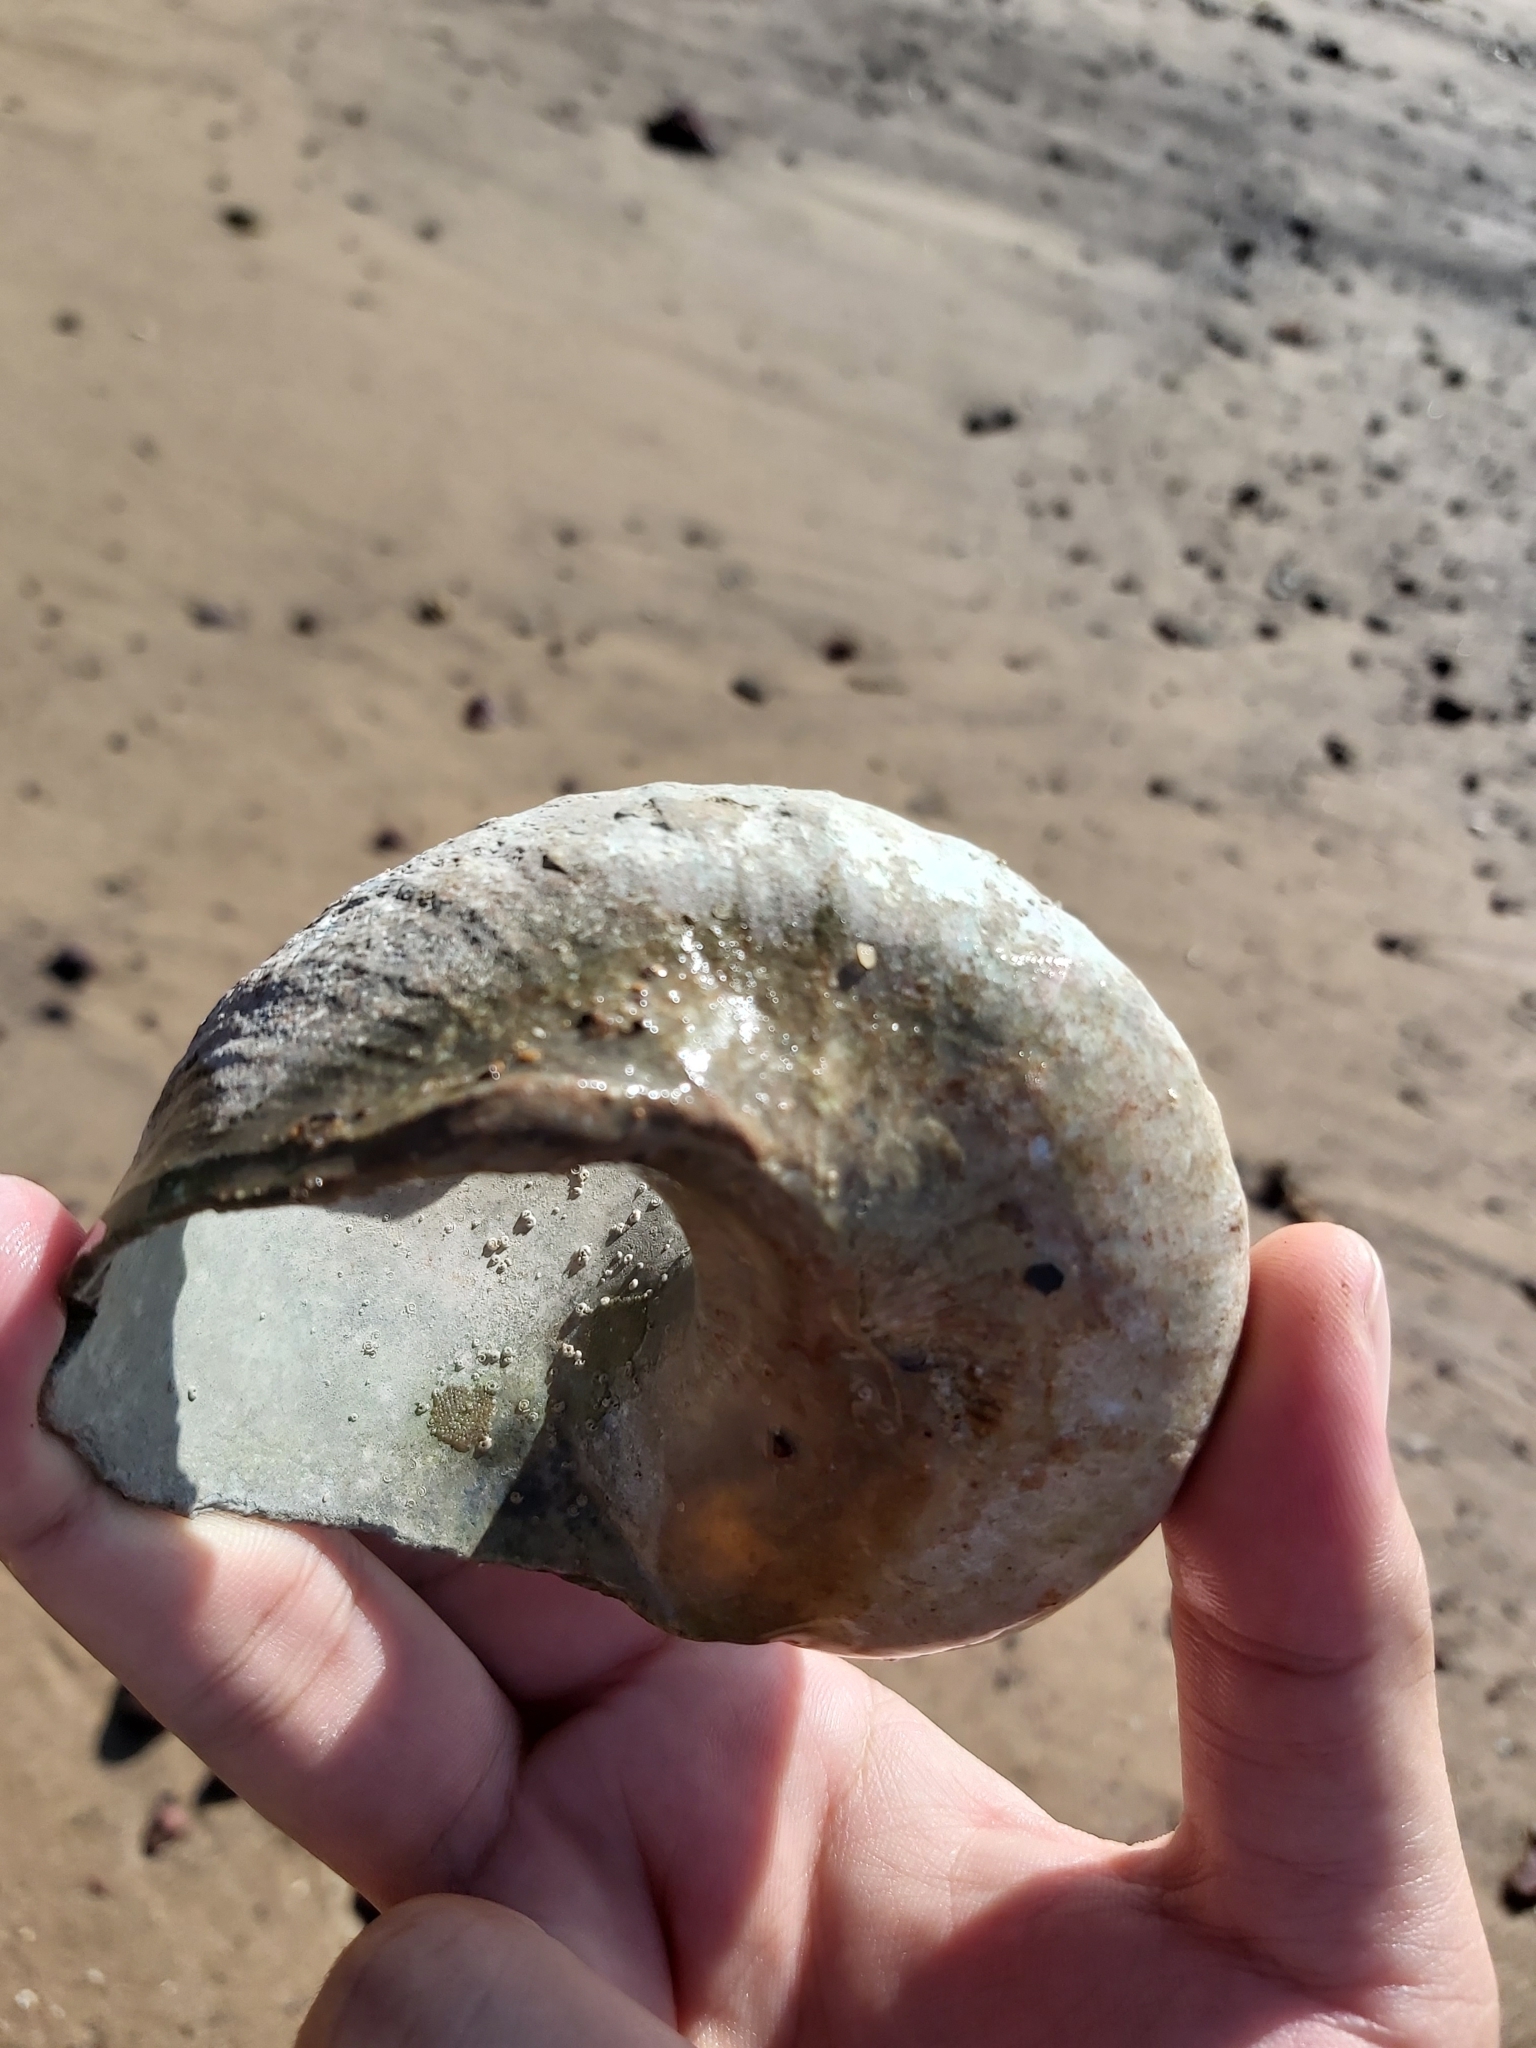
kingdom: Animalia
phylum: Mollusca
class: Gastropoda
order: Trochida
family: Turbinidae
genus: Turbo
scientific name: Turbo militaris
